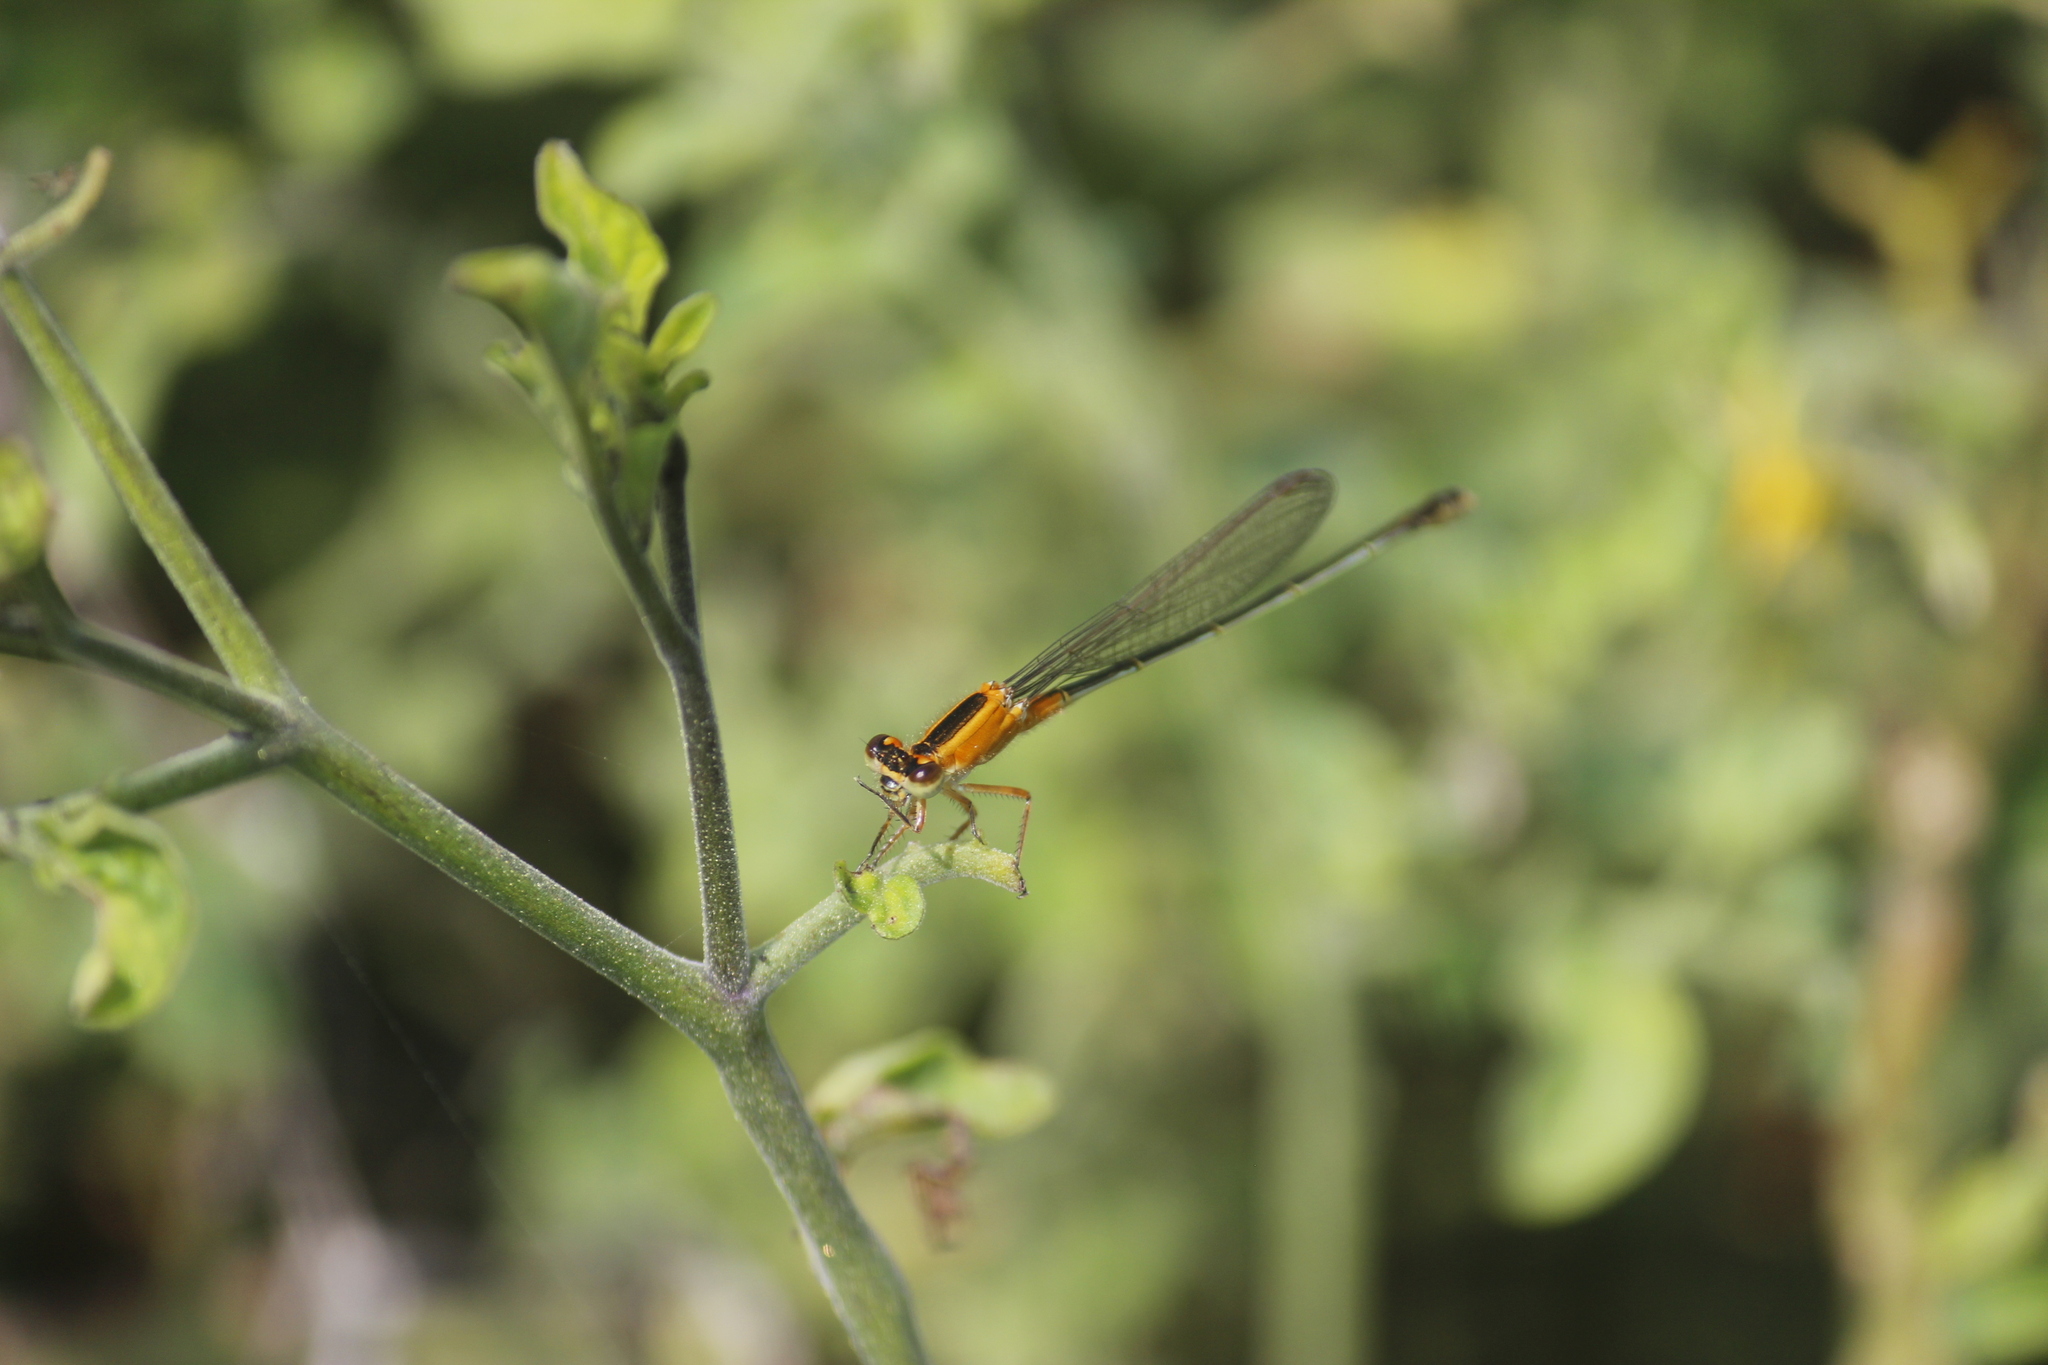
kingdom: Animalia
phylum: Arthropoda
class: Insecta
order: Odonata
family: Coenagrionidae
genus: Ischnura
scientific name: Ischnura ramburii
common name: Rambur's forktail
